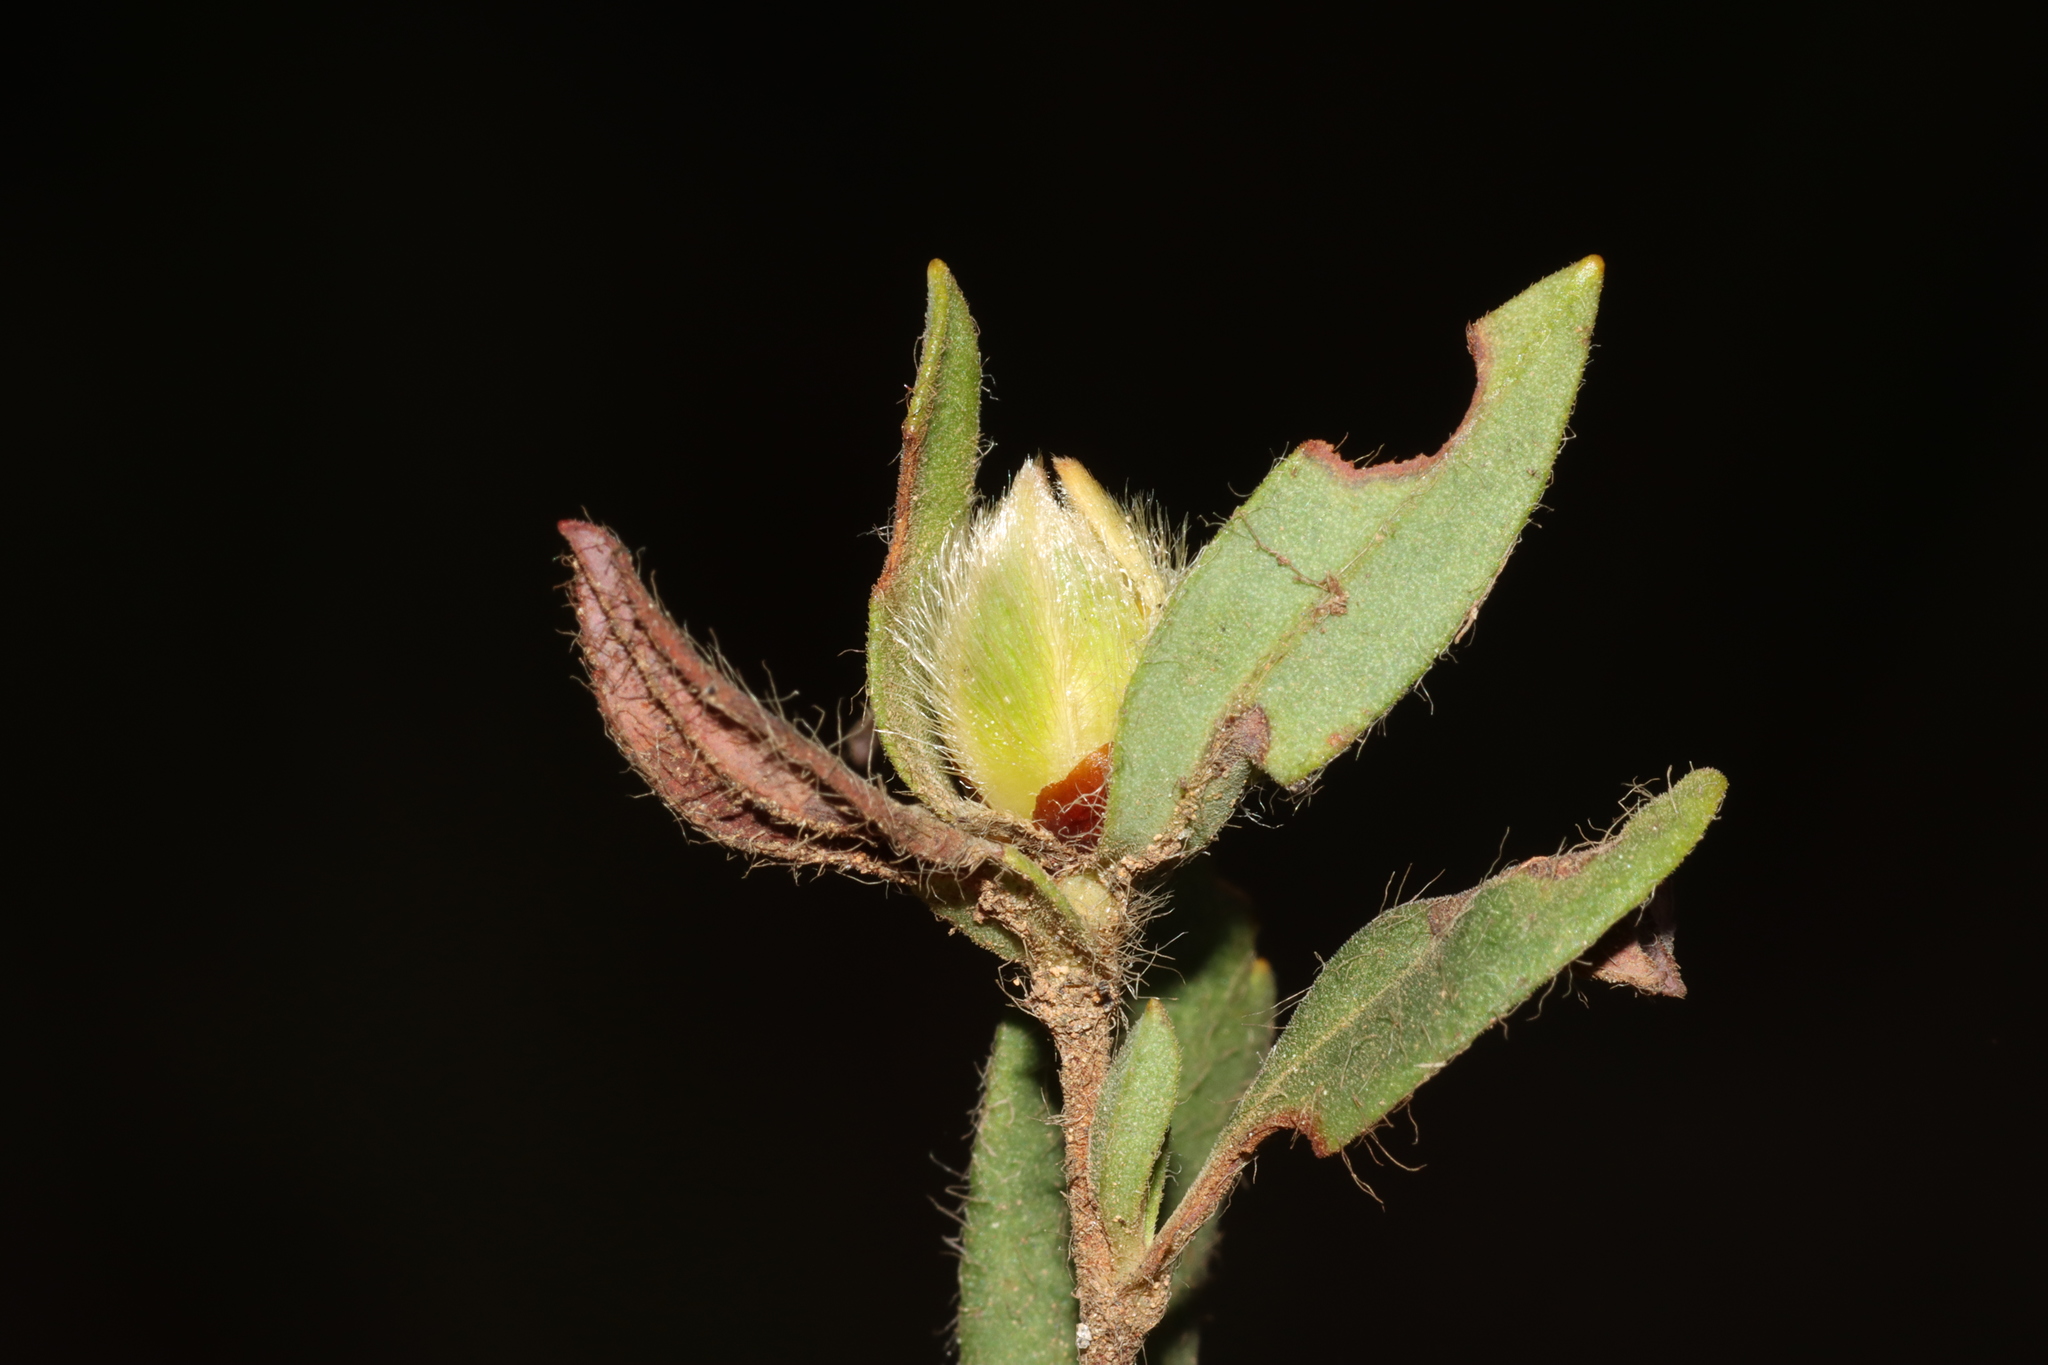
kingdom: Plantae
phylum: Tracheophyta
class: Magnoliopsida
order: Dilleniales
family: Dilleniaceae
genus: Hibbertia
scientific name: Hibbertia semipilosa
